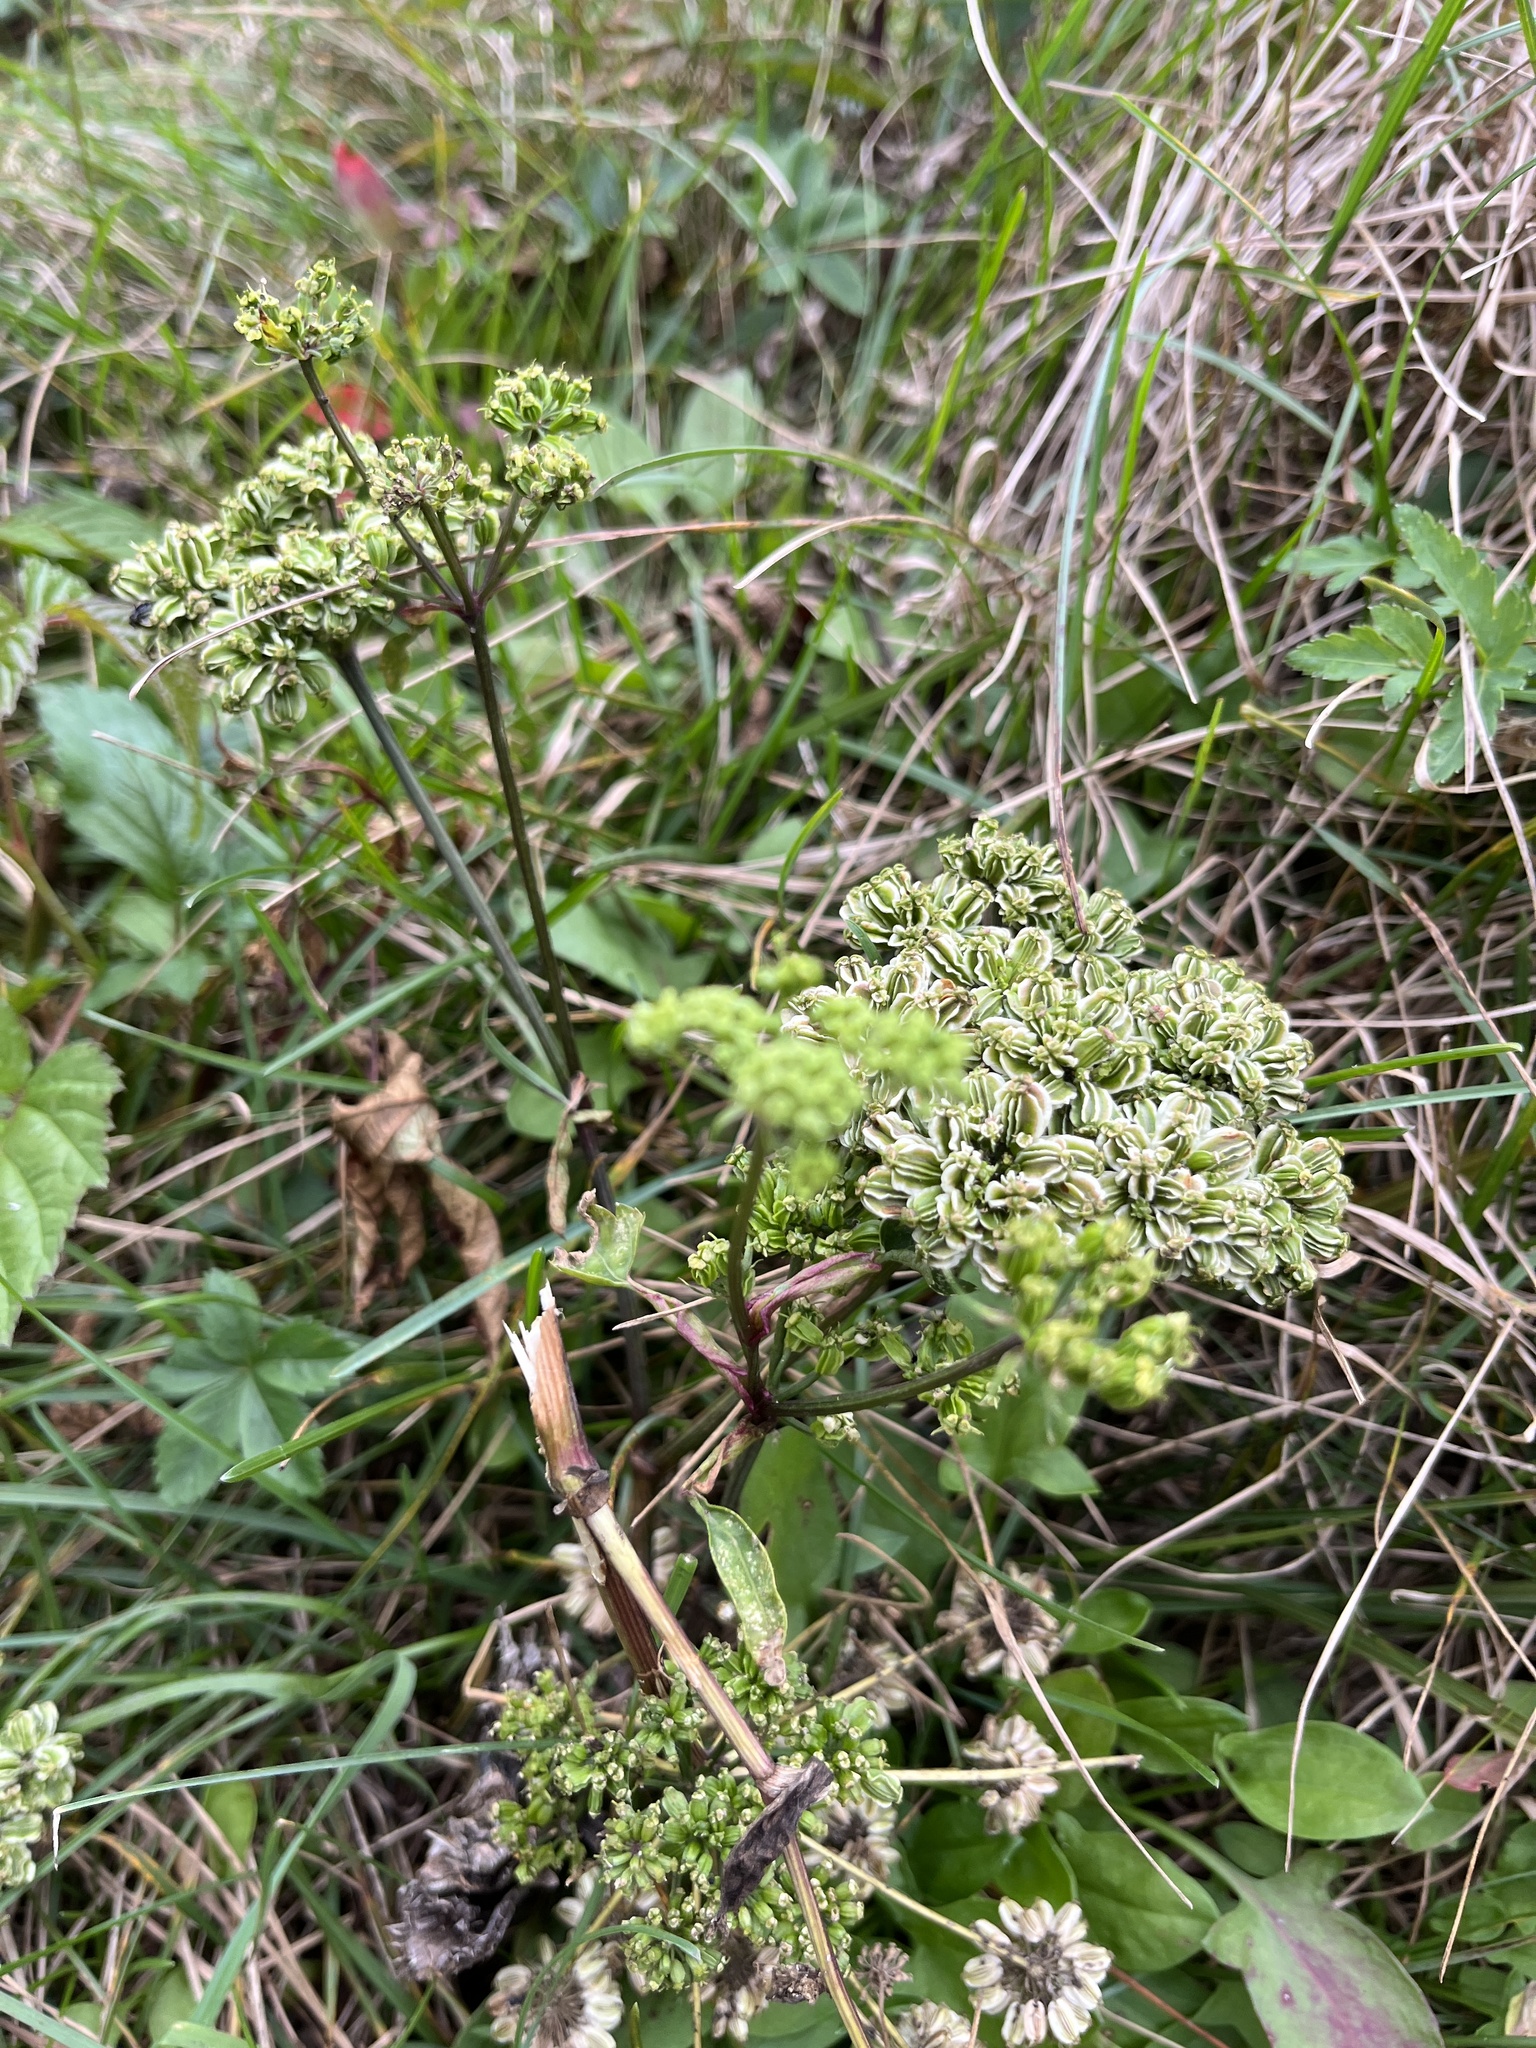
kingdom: Plantae
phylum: Tracheophyta
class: Magnoliopsida
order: Apiales
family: Apiaceae
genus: Angelica
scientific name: Angelica triquinata
